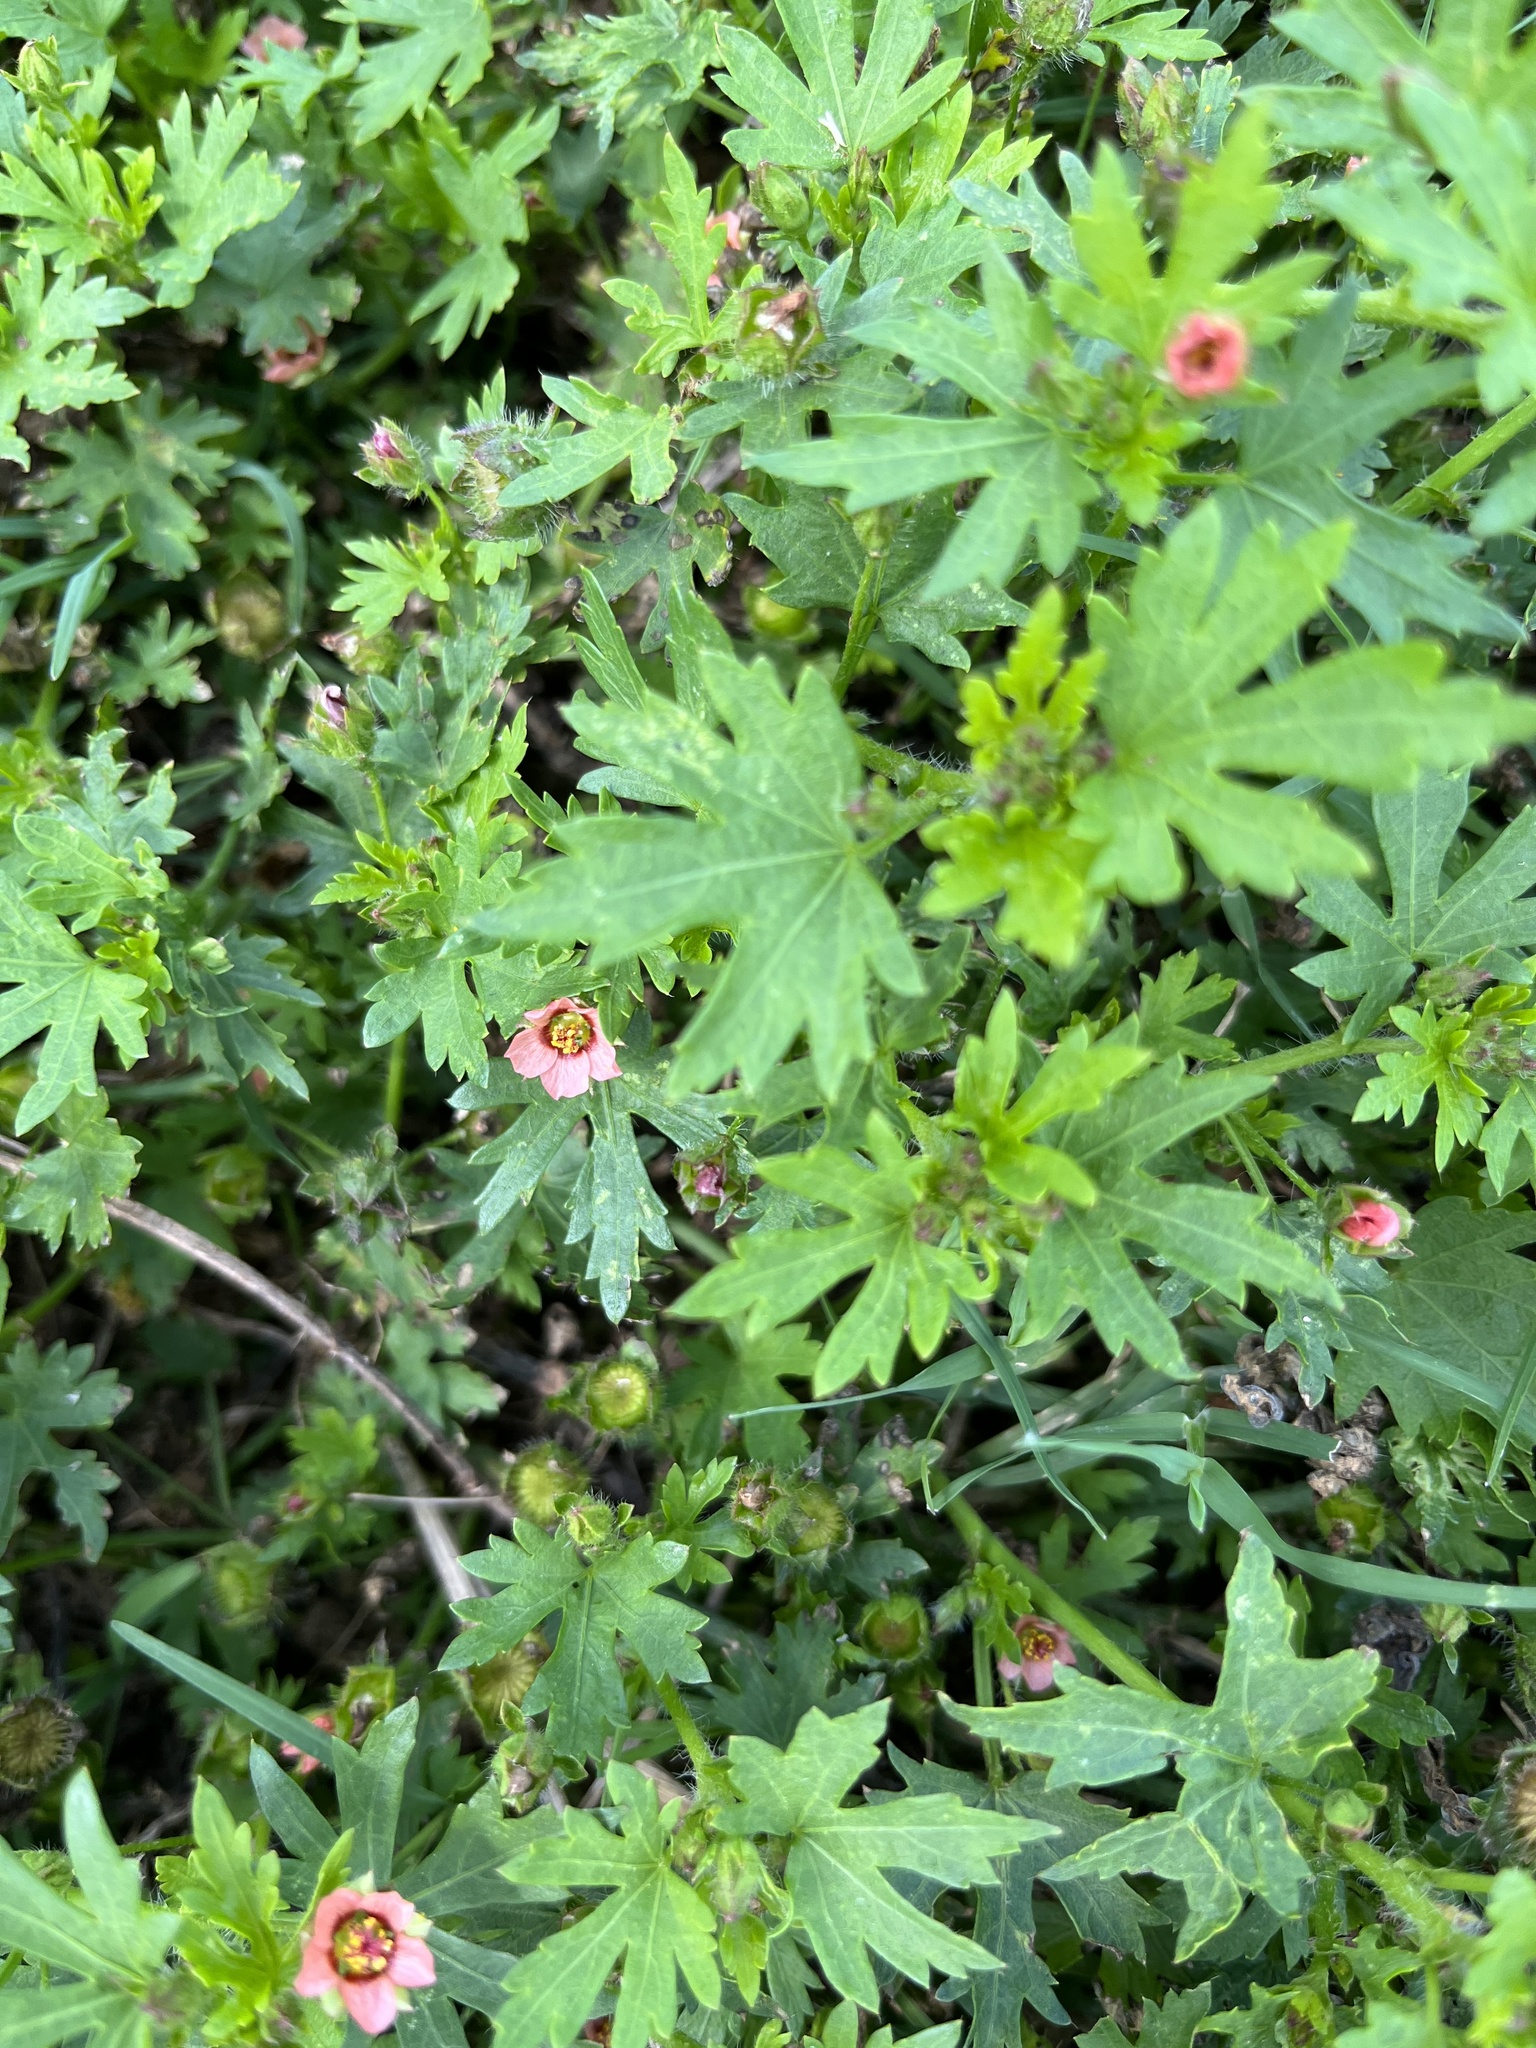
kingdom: Plantae
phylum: Tracheophyta
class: Magnoliopsida
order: Malvales
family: Malvaceae
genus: Modiola
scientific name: Modiola caroliniana
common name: Carolina bristlemallow
